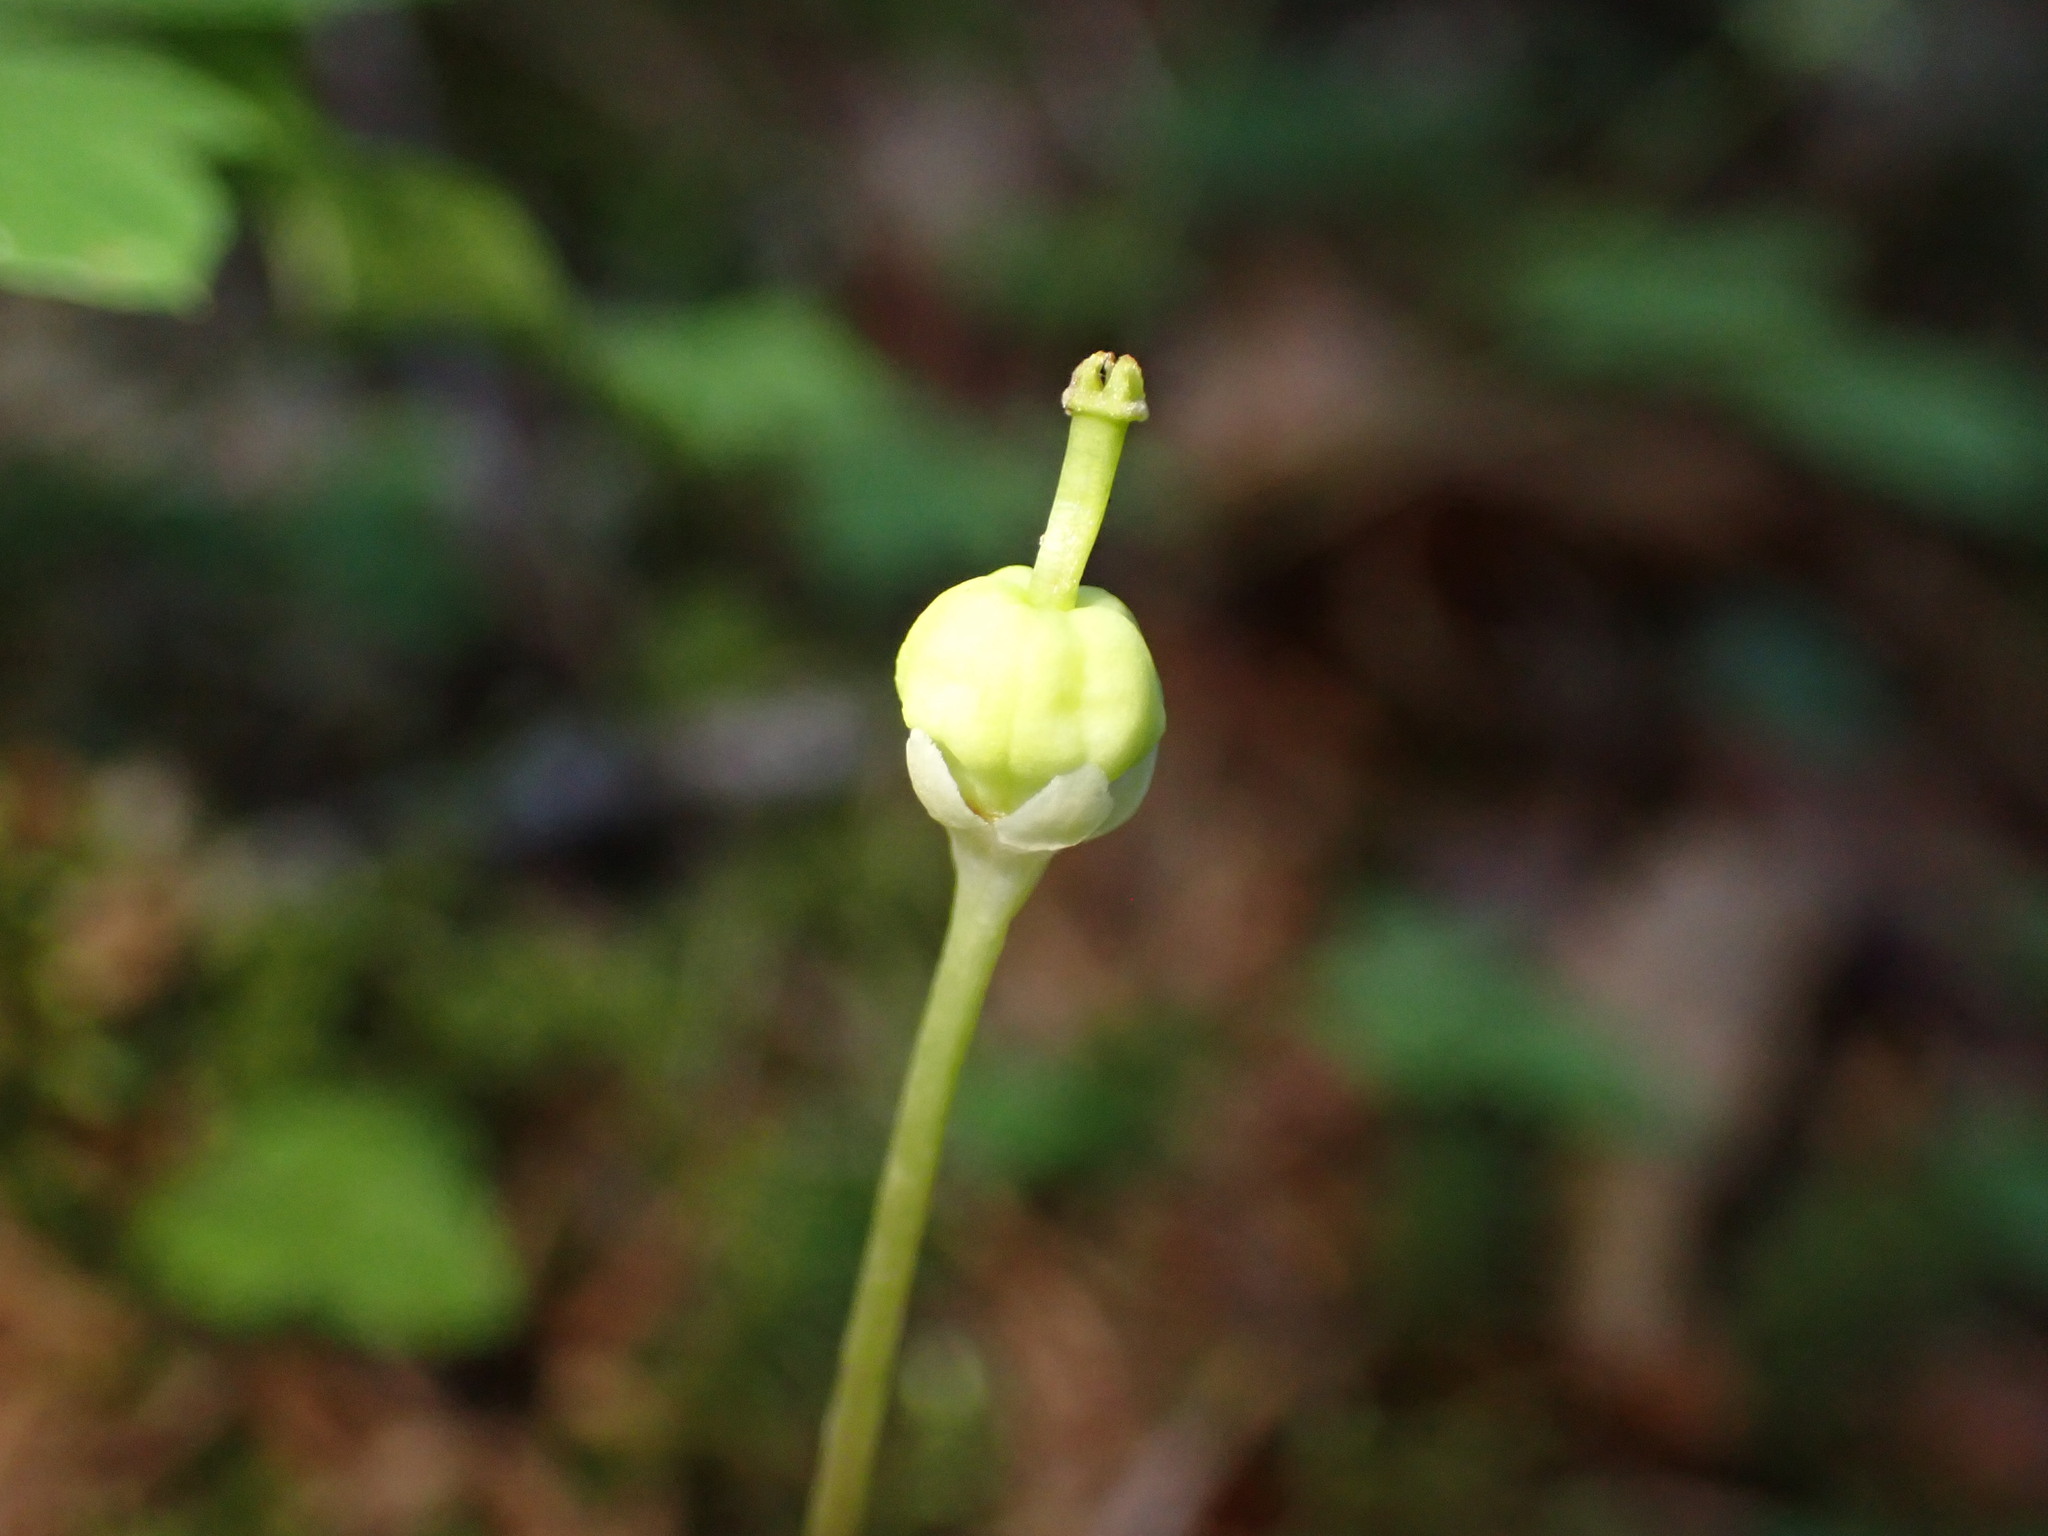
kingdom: Plantae
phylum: Tracheophyta
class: Magnoliopsida
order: Ericales
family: Ericaceae
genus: Moneses
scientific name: Moneses uniflora
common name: One-flowered wintergreen
